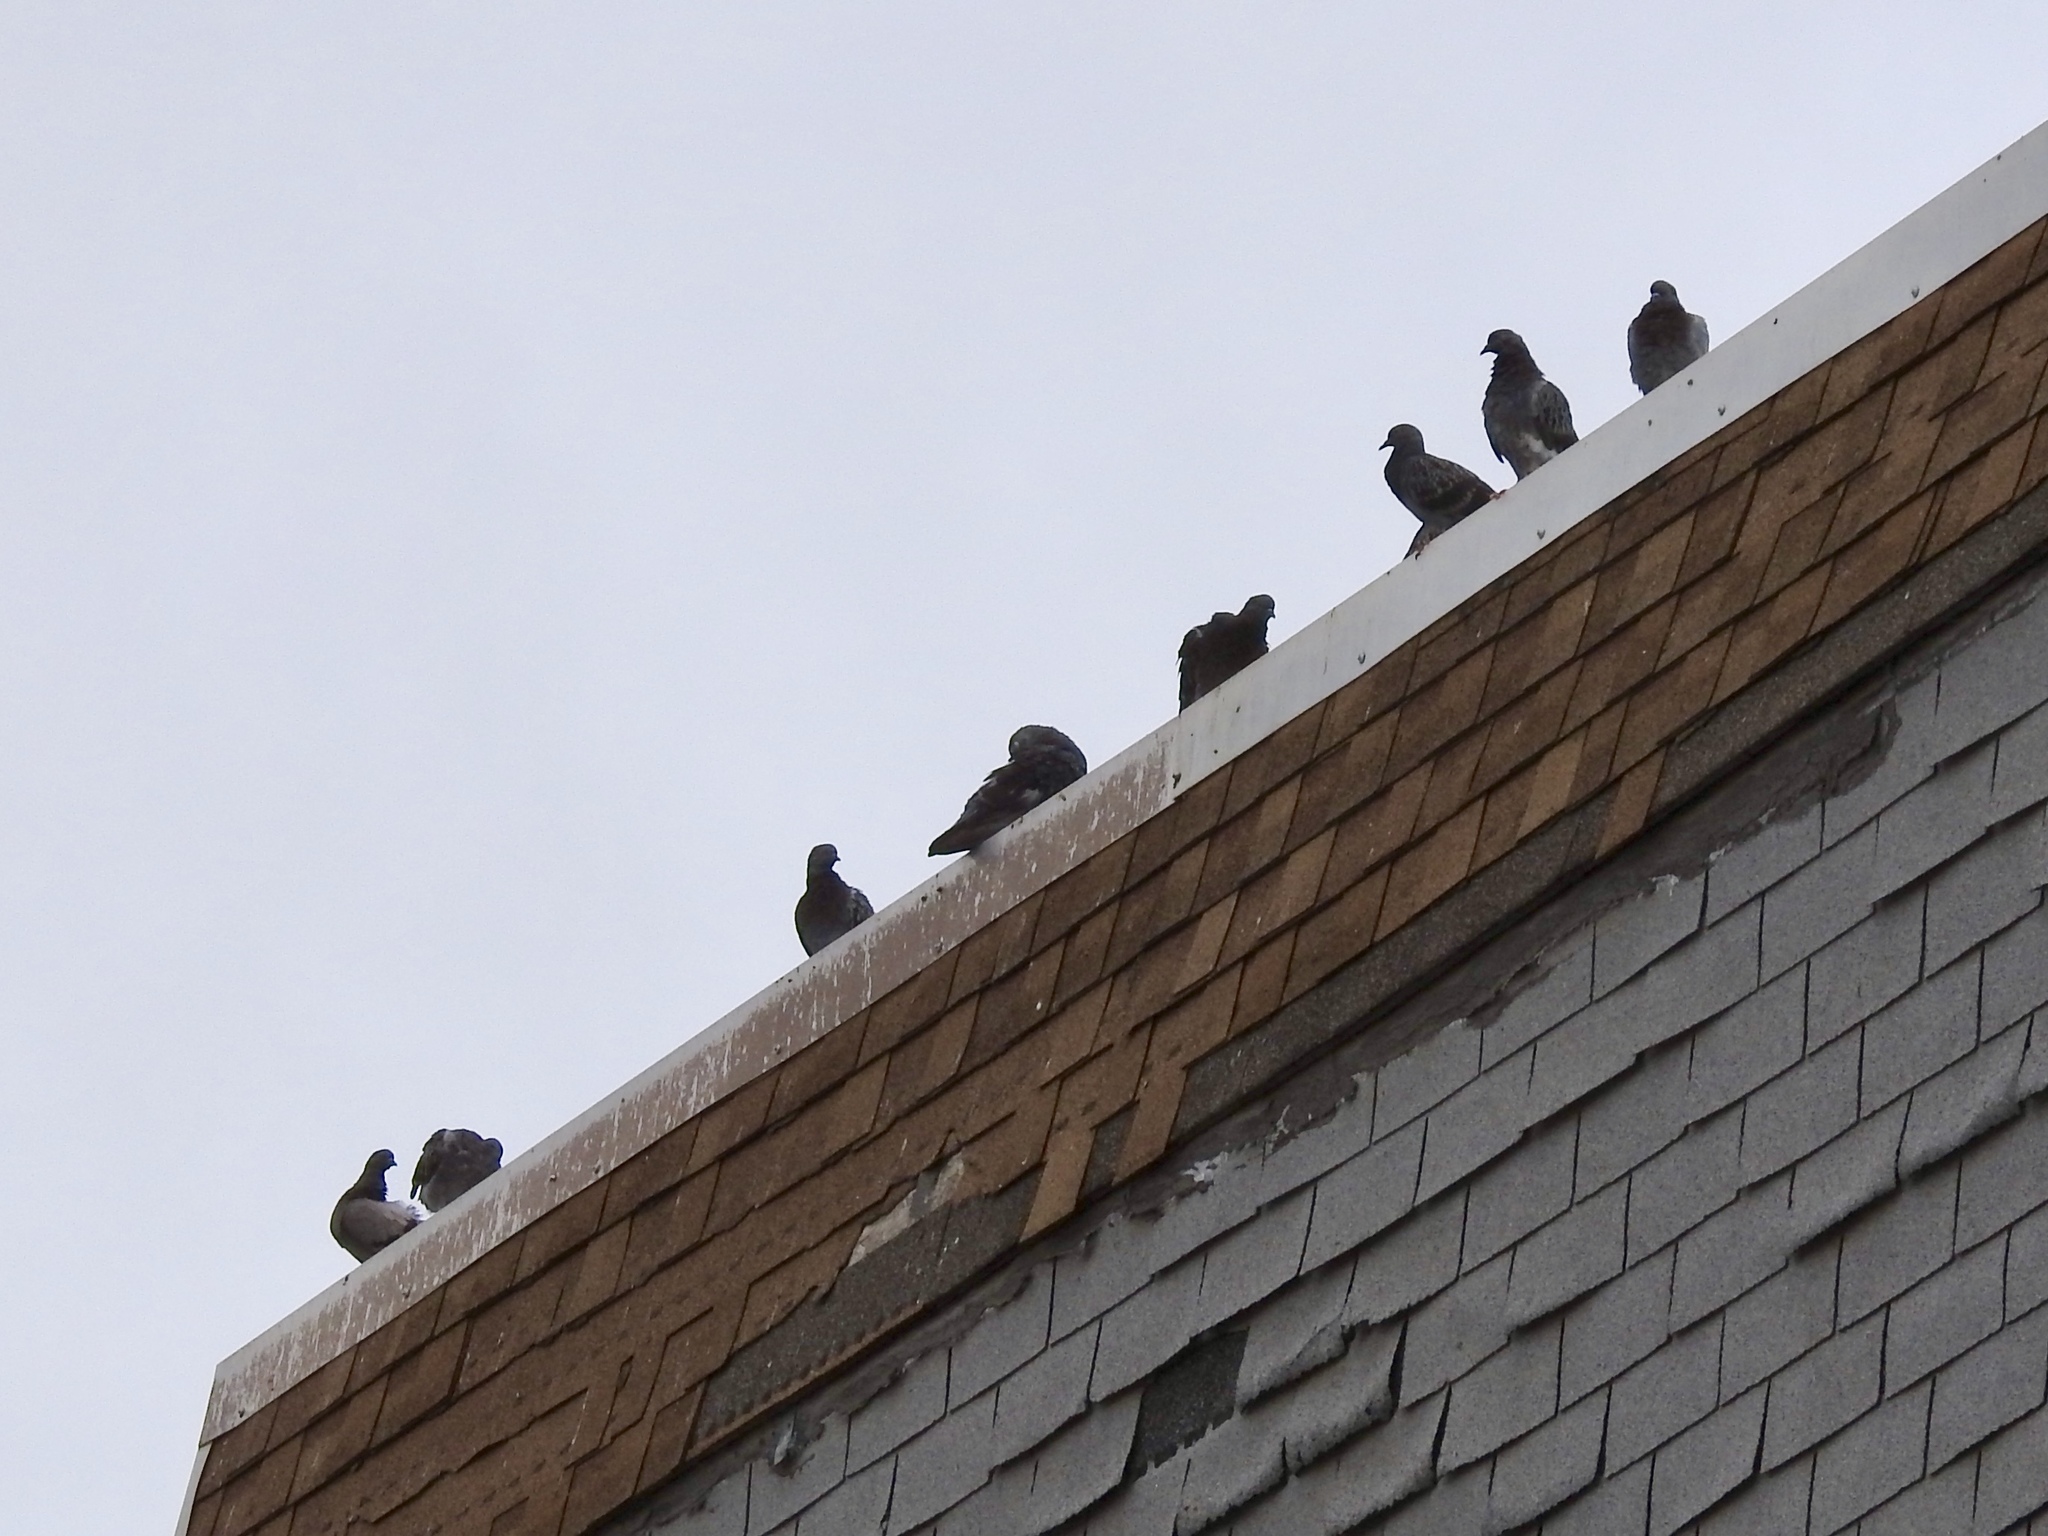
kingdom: Animalia
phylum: Chordata
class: Aves
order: Columbiformes
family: Columbidae
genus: Columba
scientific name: Columba livia
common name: Rock pigeon
